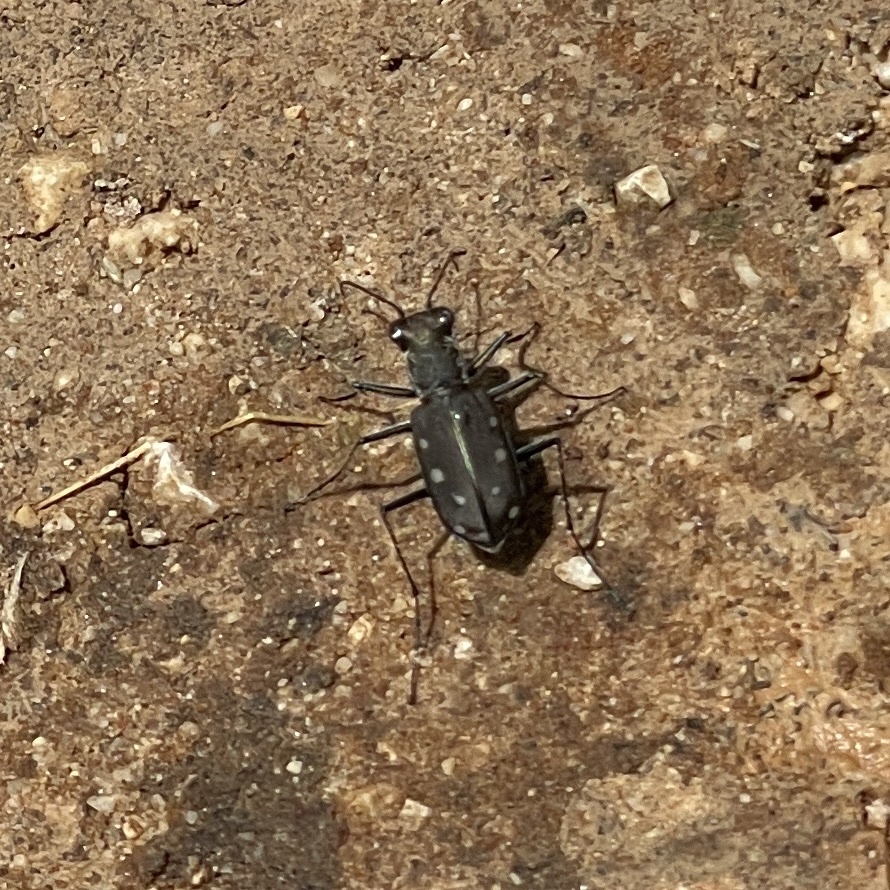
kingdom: Animalia
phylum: Arthropoda
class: Insecta
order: Coleoptera
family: Carabidae
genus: Cicindela
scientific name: Cicindela ocellata
